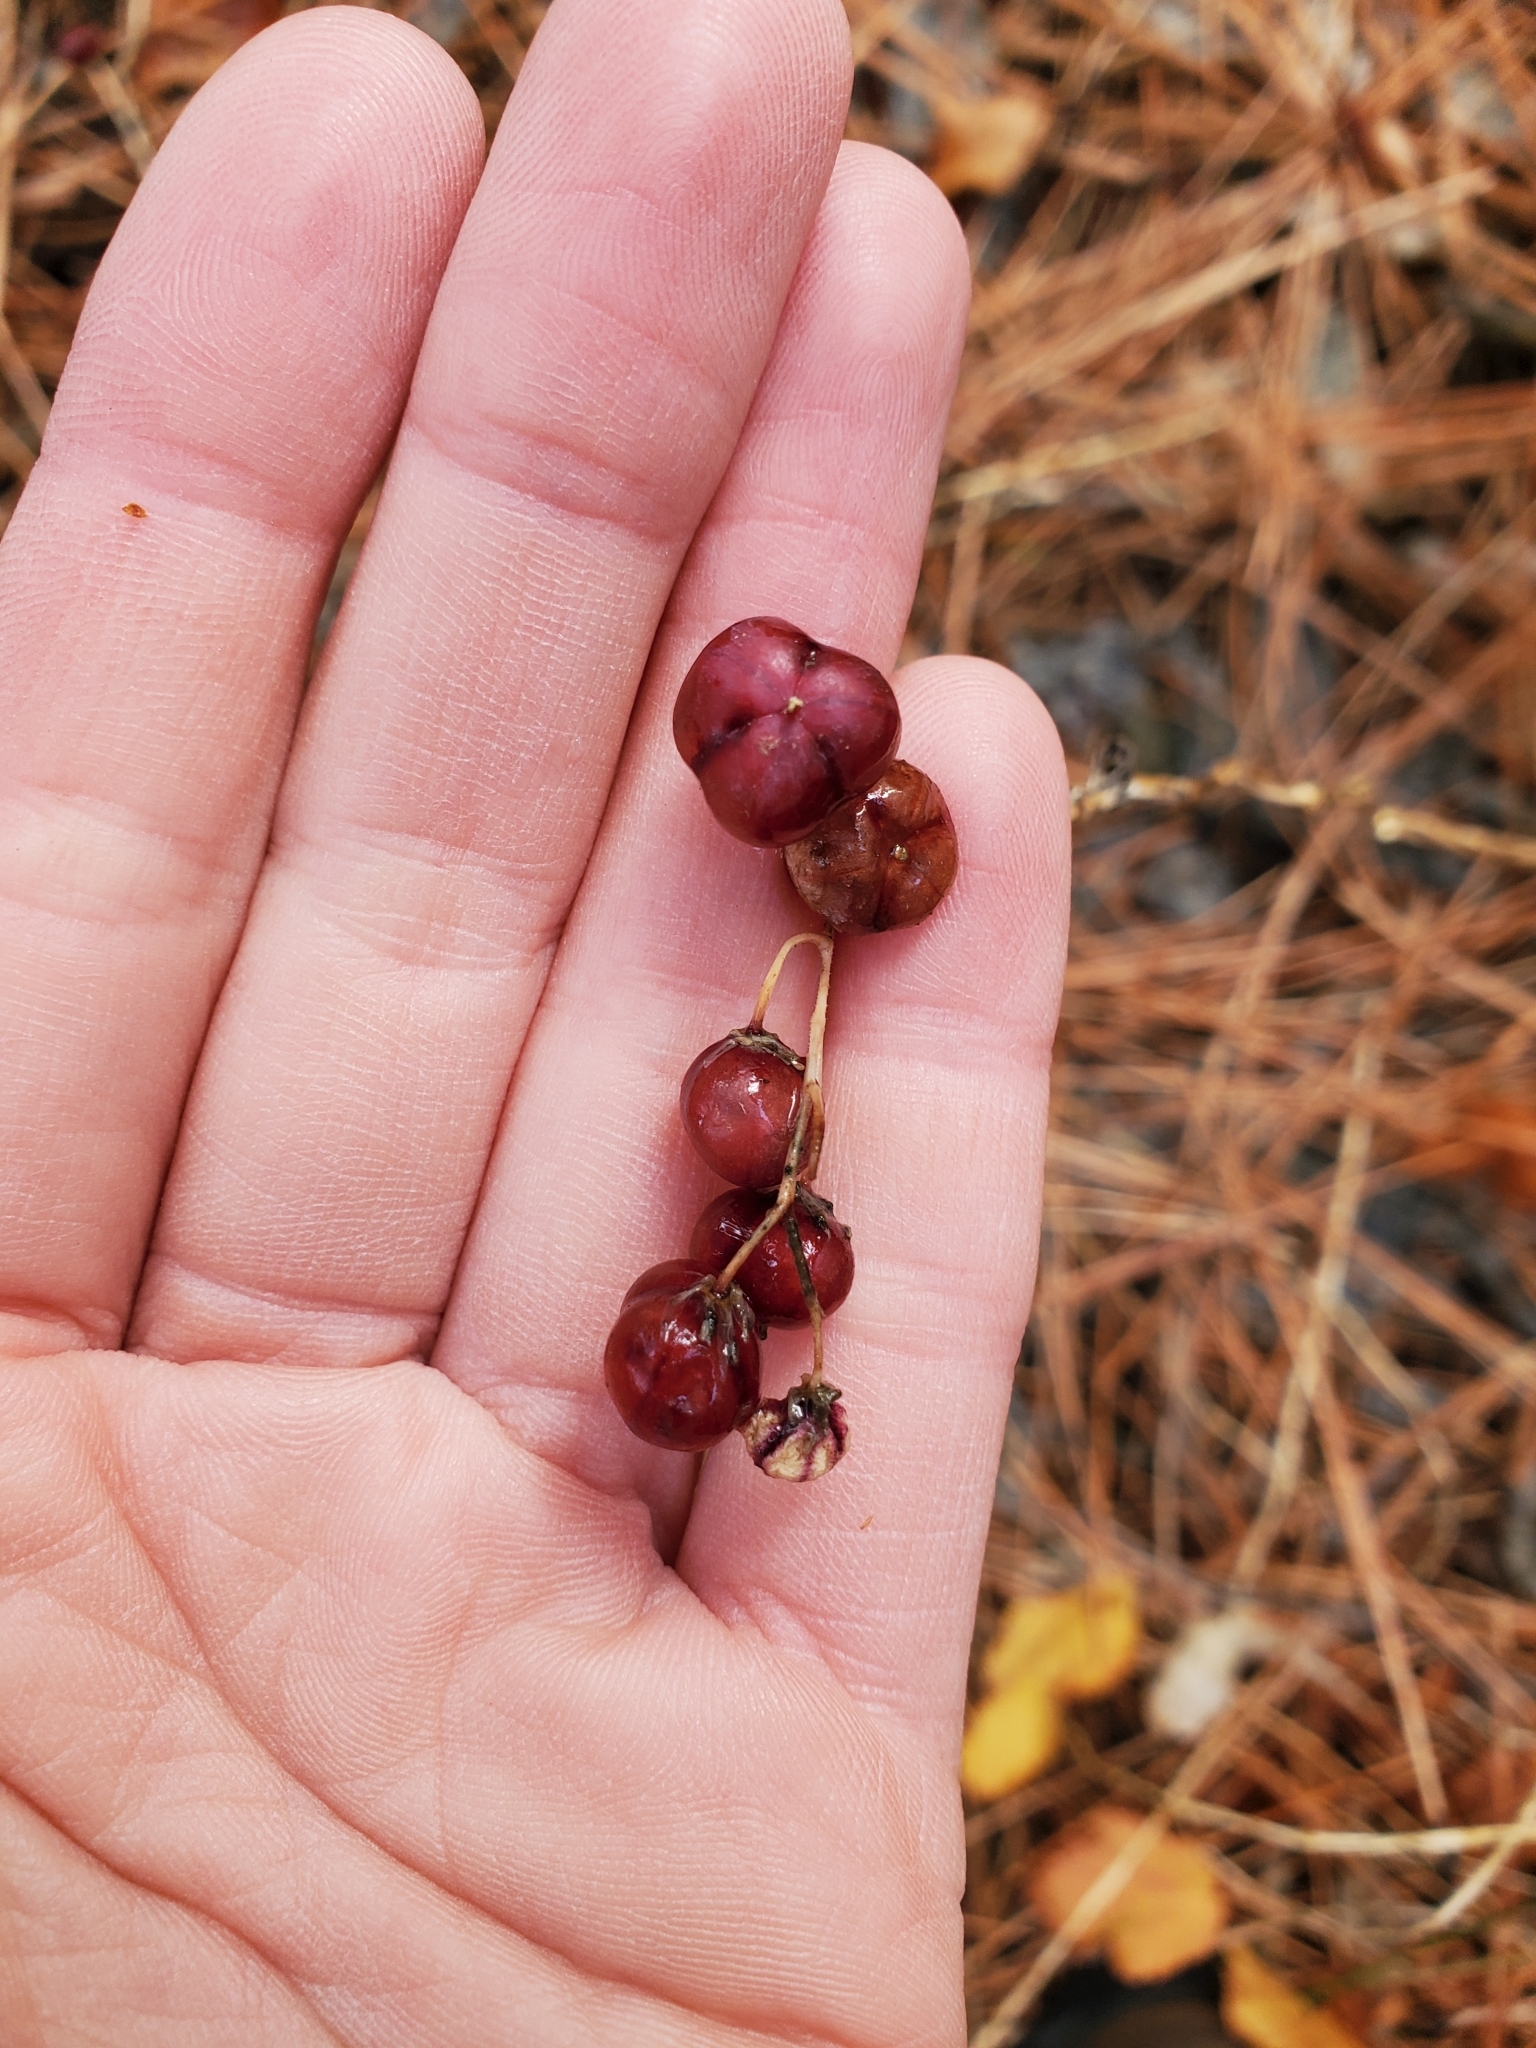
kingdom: Plantae
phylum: Tracheophyta
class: Liliopsida
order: Asparagales
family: Asparagaceae
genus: Maianthemum
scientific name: Maianthemum stellatum
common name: Little false solomon's seal
